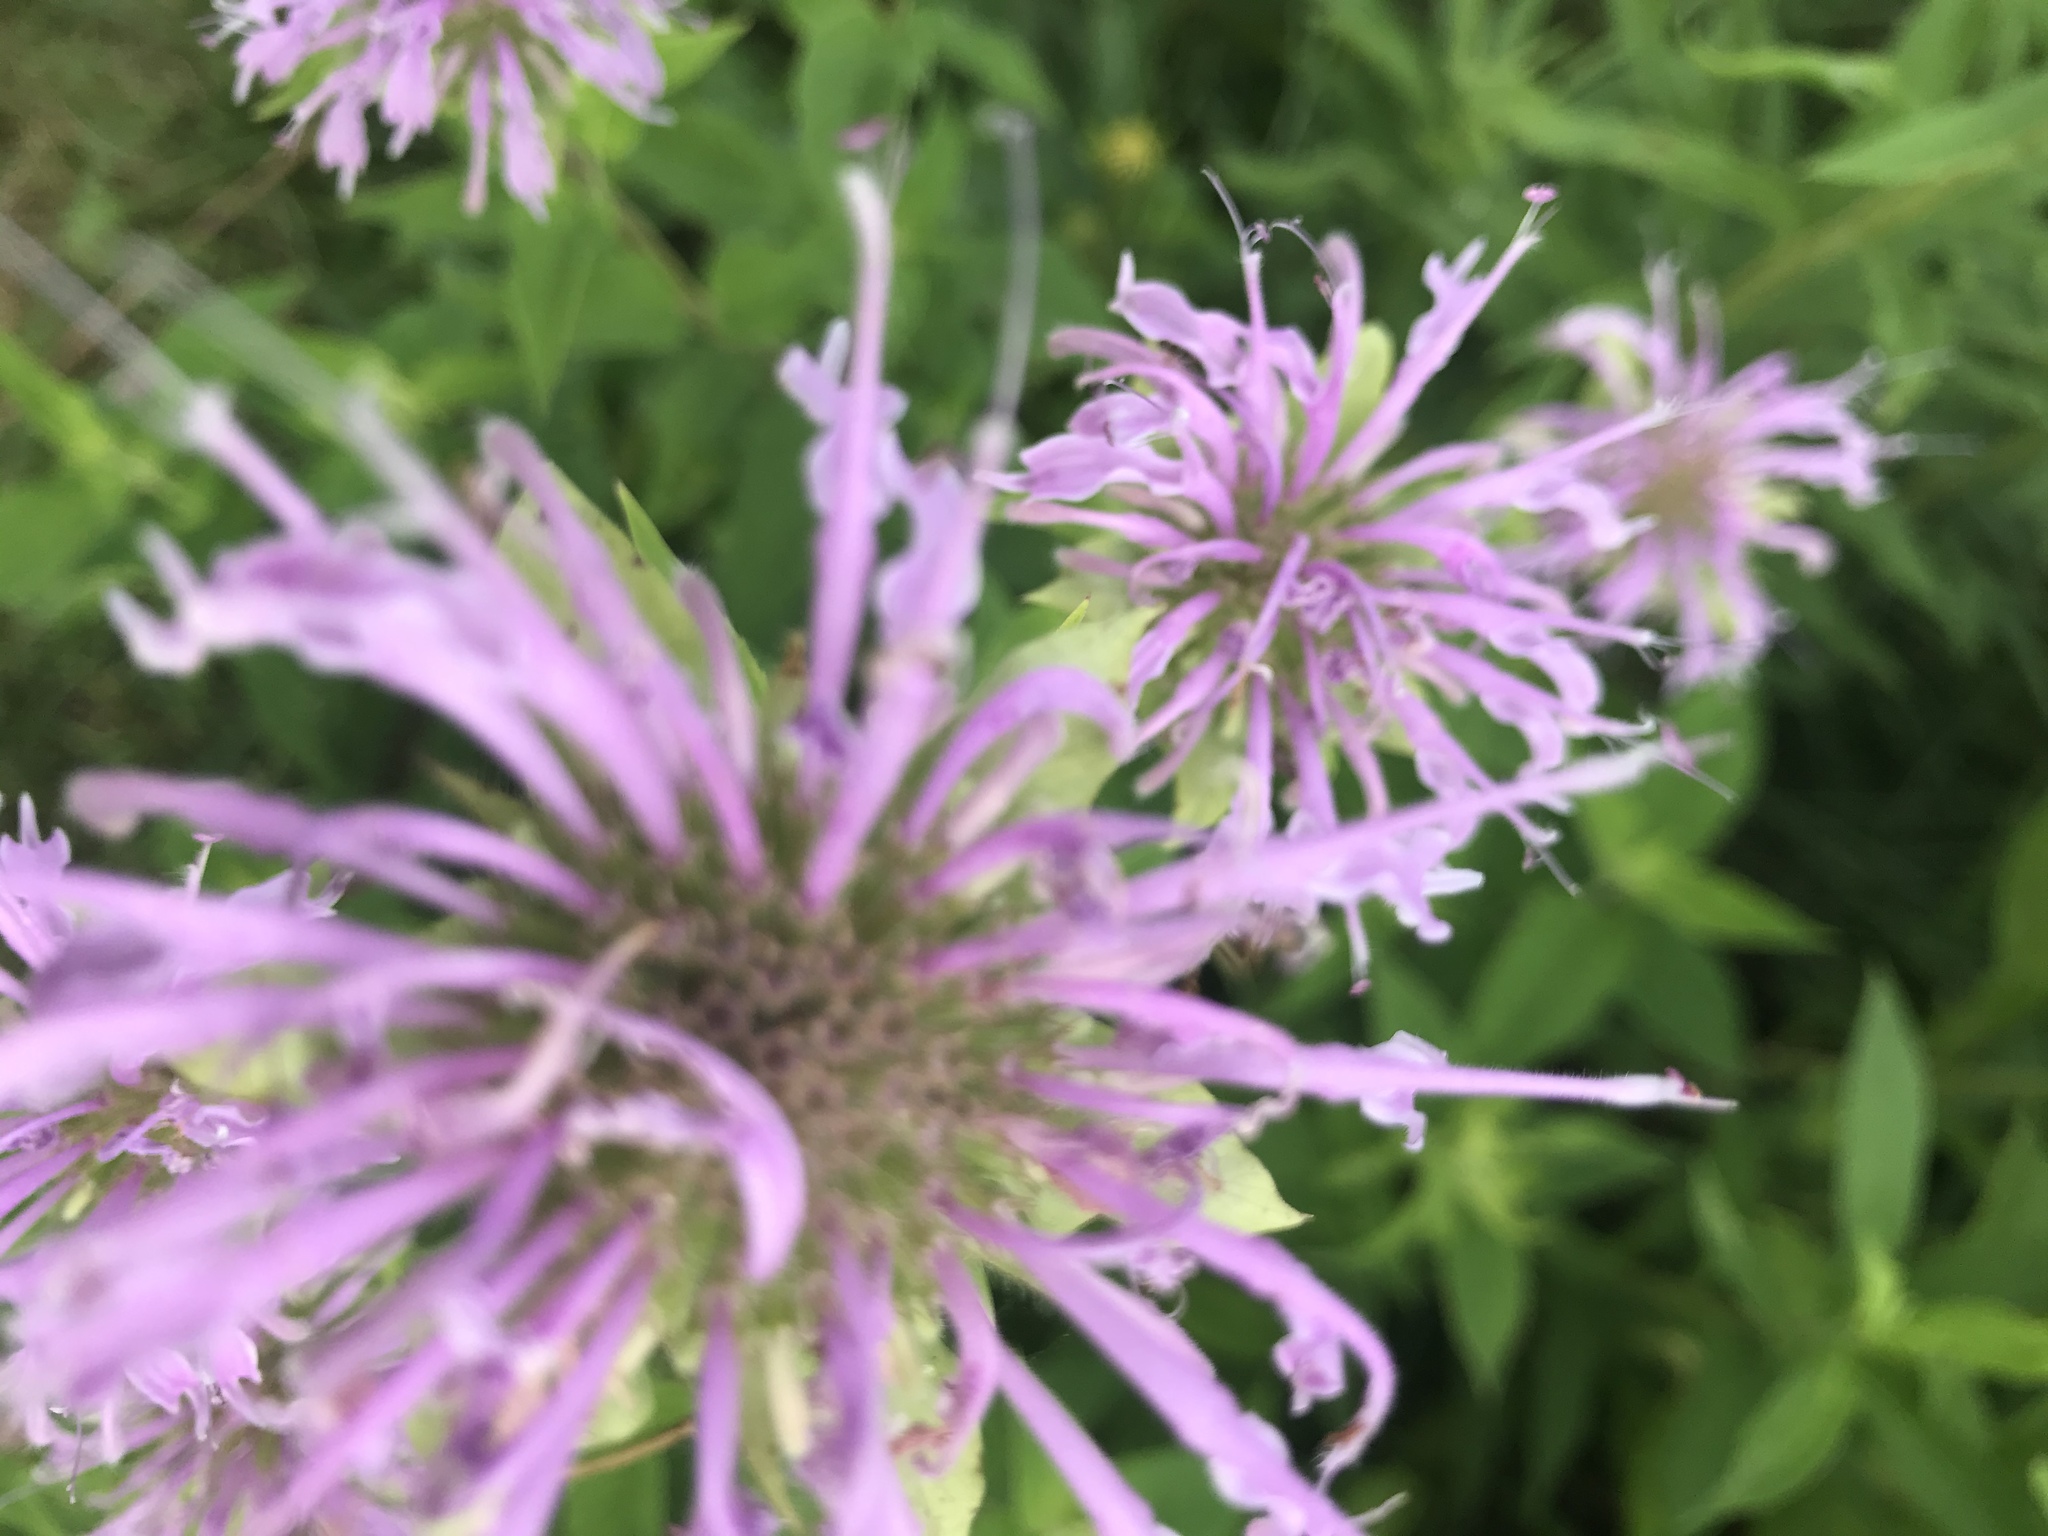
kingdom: Plantae
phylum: Tracheophyta
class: Magnoliopsida
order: Lamiales
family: Lamiaceae
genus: Monarda
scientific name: Monarda fistulosa
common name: Purple beebalm
